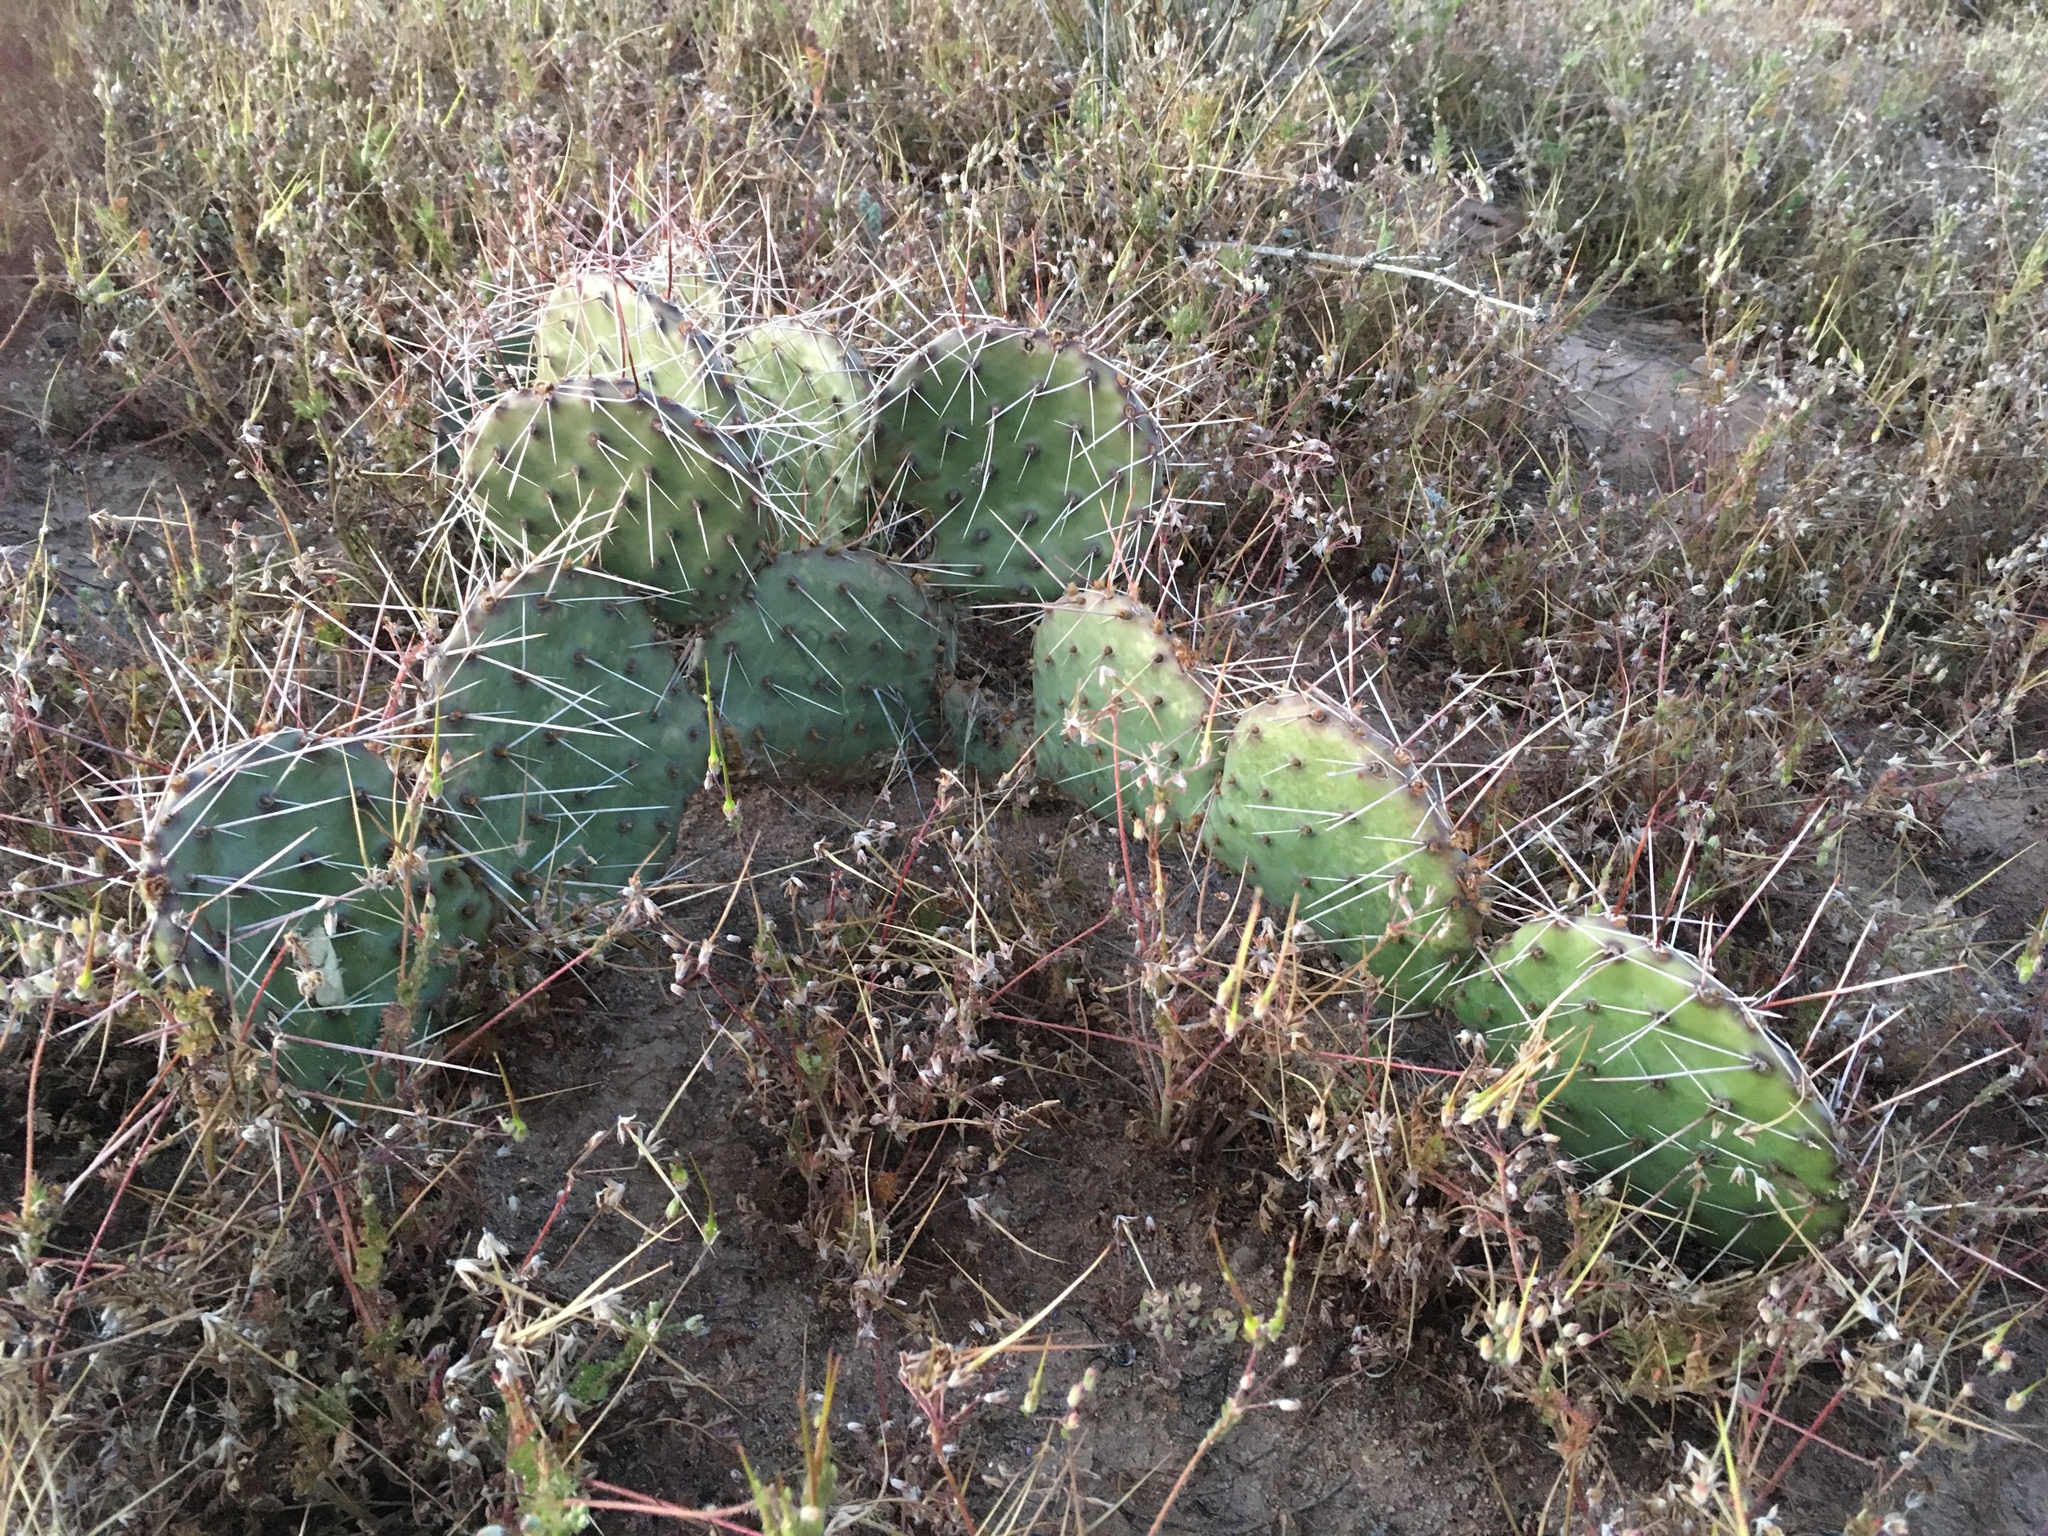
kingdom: Plantae
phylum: Tracheophyta
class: Magnoliopsida
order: Caryophyllales
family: Cactaceae
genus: Opuntia
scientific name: Opuntia macrorhiza
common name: Grassland pricklypear
